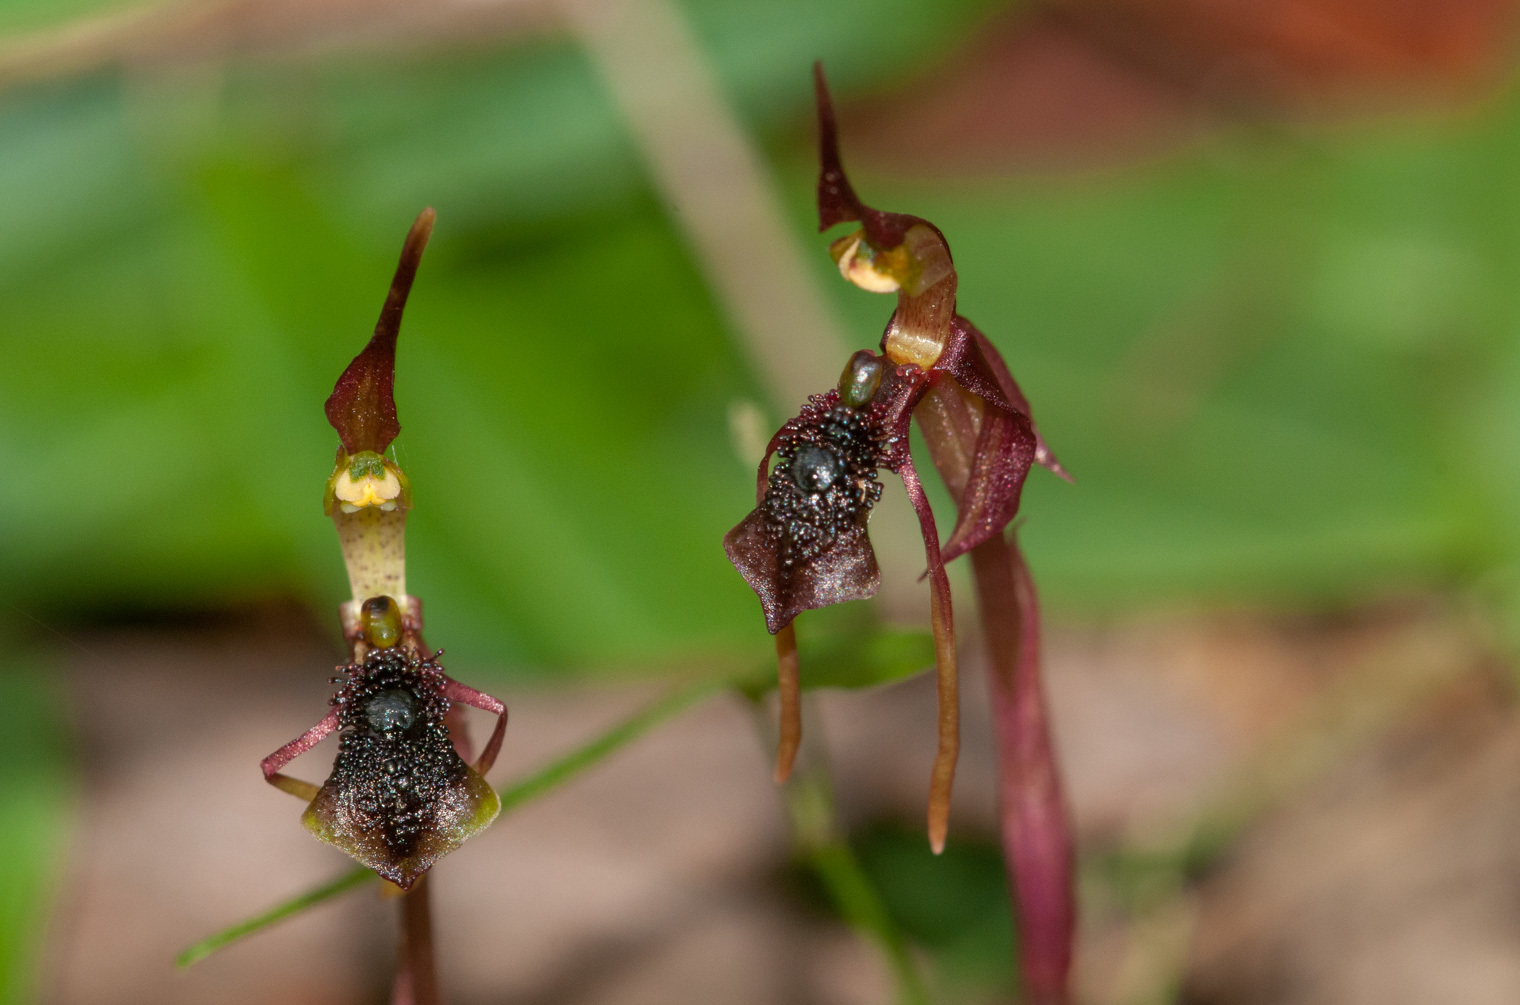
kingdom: Plantae
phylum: Tracheophyta
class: Liliopsida
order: Asparagales
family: Orchidaceae
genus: Chiloglottis
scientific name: Chiloglottis diphylla
